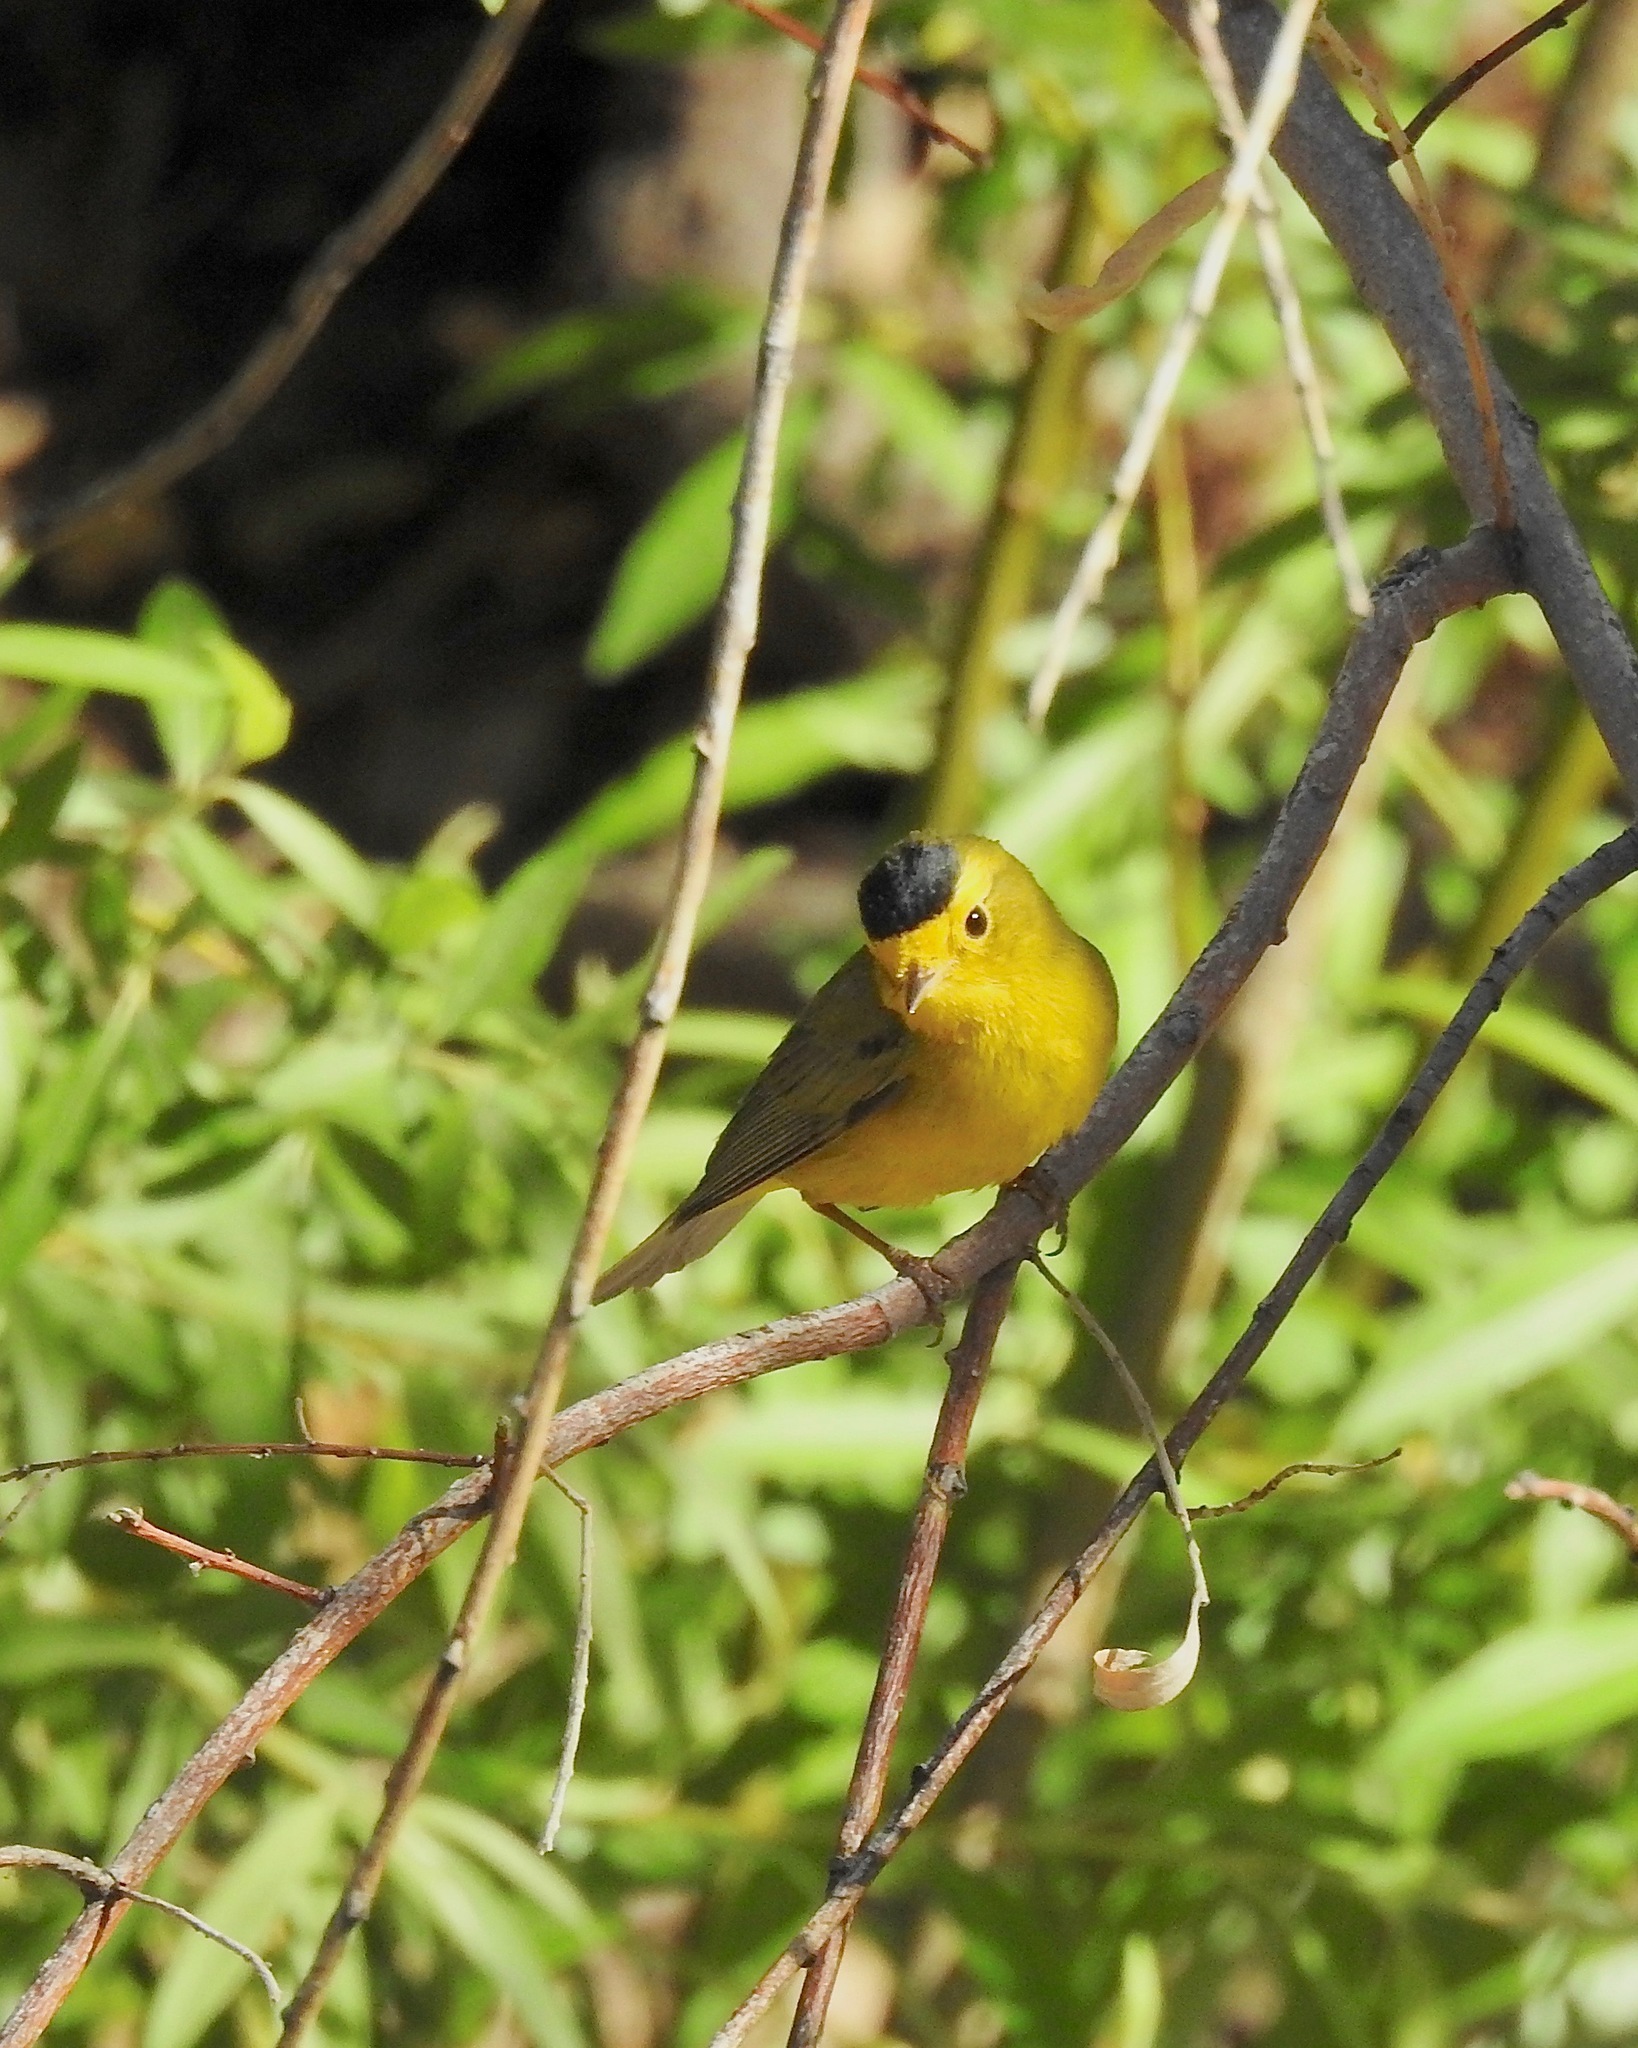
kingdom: Animalia
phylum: Chordata
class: Aves
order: Passeriformes
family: Parulidae
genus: Cardellina
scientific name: Cardellina pusilla
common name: Wilson's warbler
